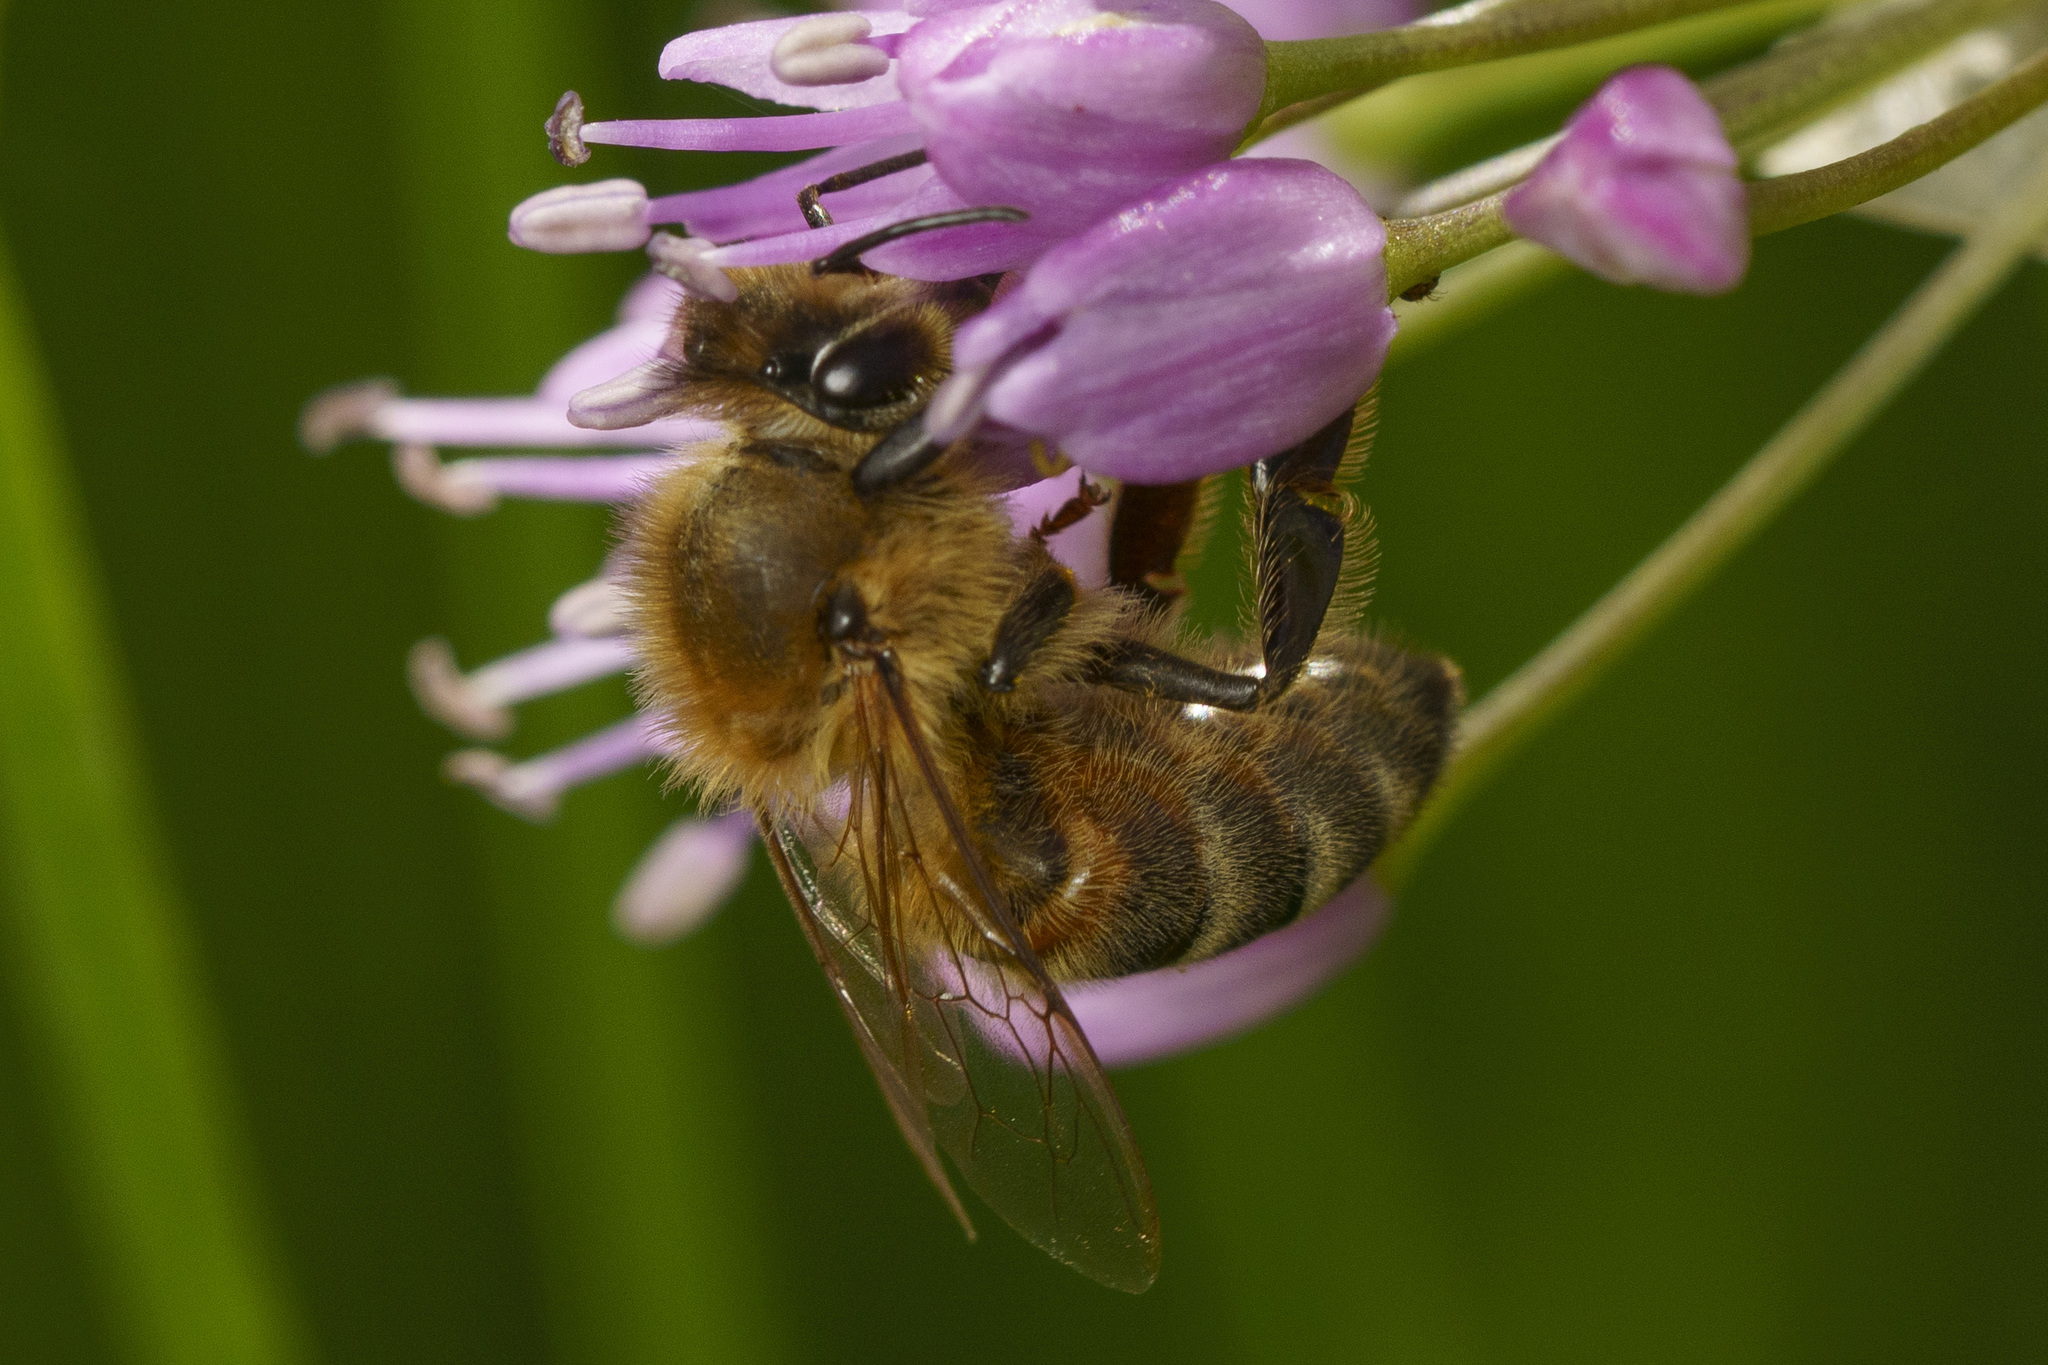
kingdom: Animalia
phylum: Arthropoda
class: Insecta
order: Hymenoptera
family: Apidae
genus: Apis
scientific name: Apis mellifera
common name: Honey bee
